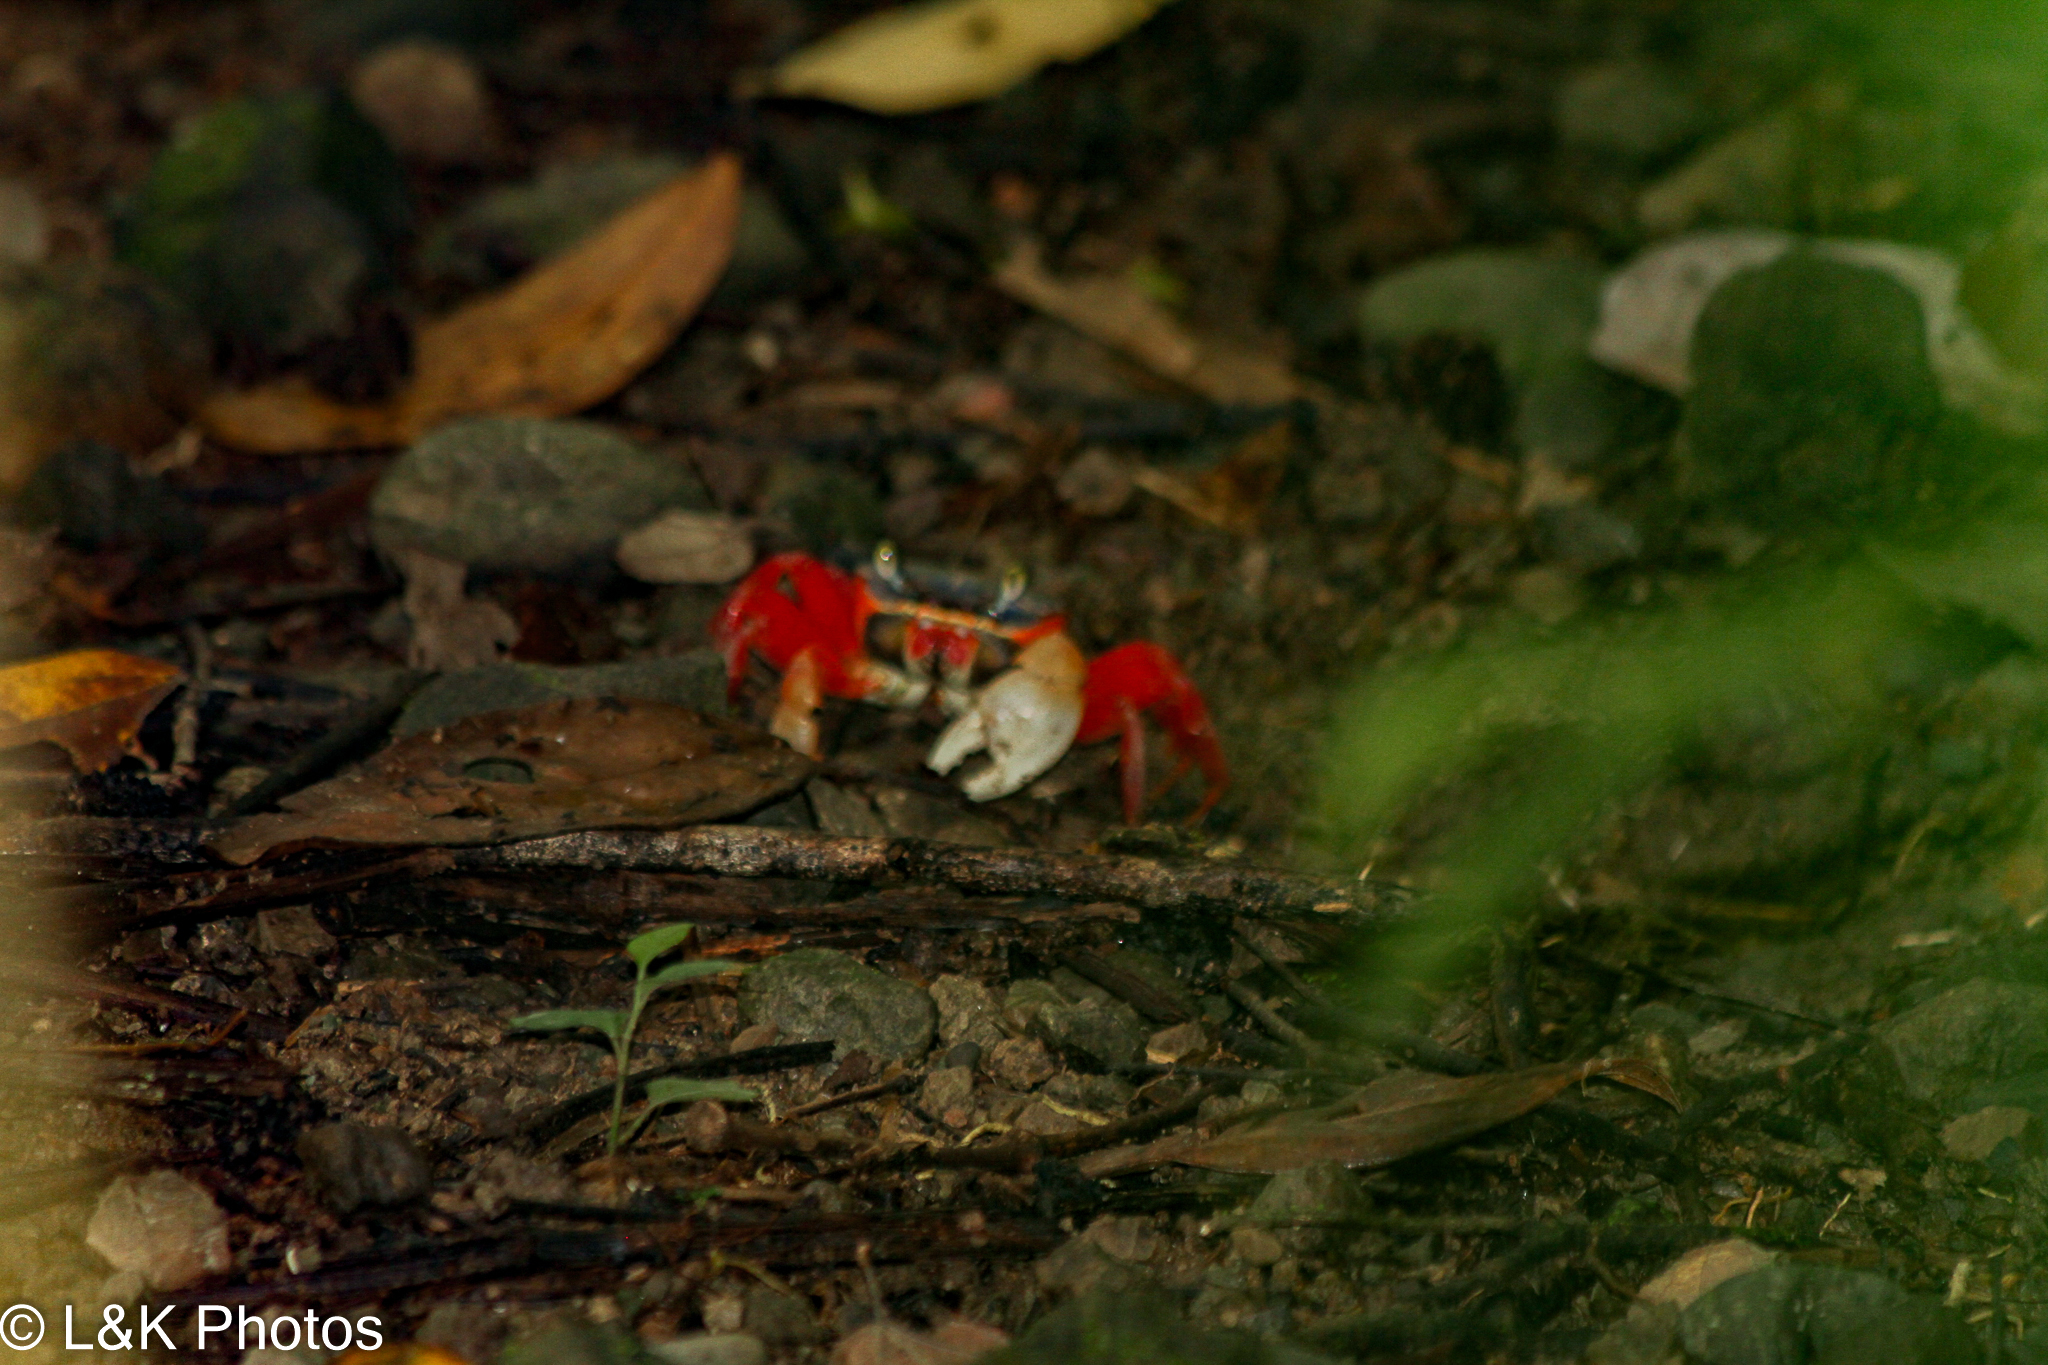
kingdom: Animalia
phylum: Arthropoda
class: Malacostraca
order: Decapoda
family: Gecarcinidae
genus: Cardisoma
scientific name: Cardisoma crassum
